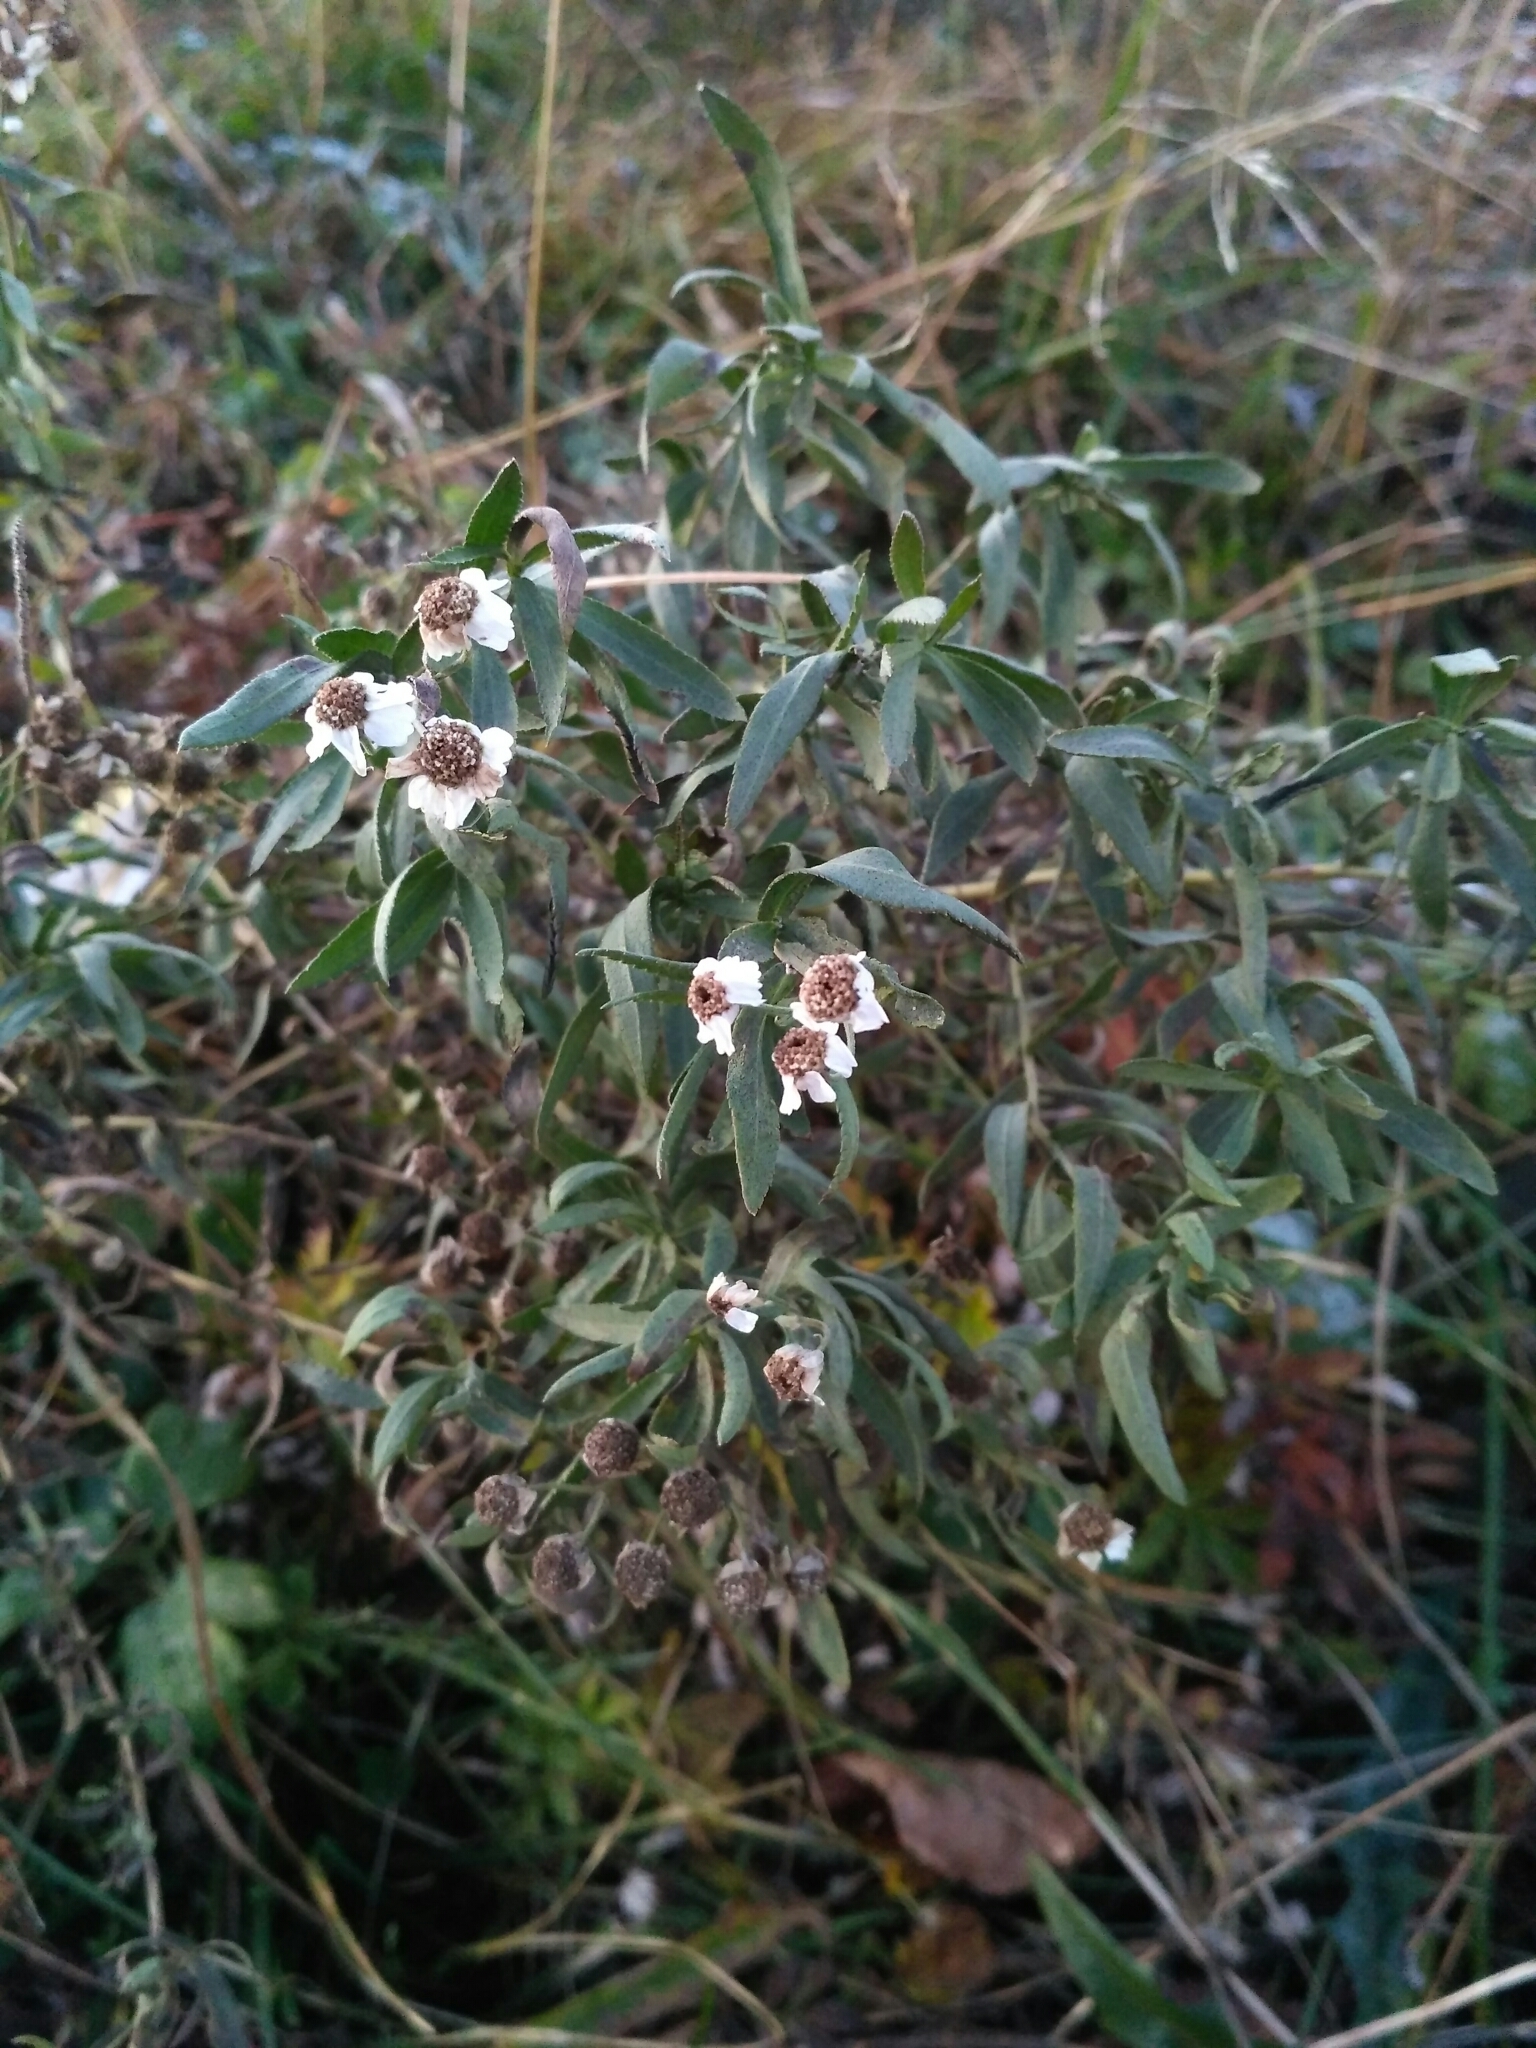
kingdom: Plantae
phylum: Tracheophyta
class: Magnoliopsida
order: Asterales
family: Asteraceae
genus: Achillea
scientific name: Achillea salicifolia
